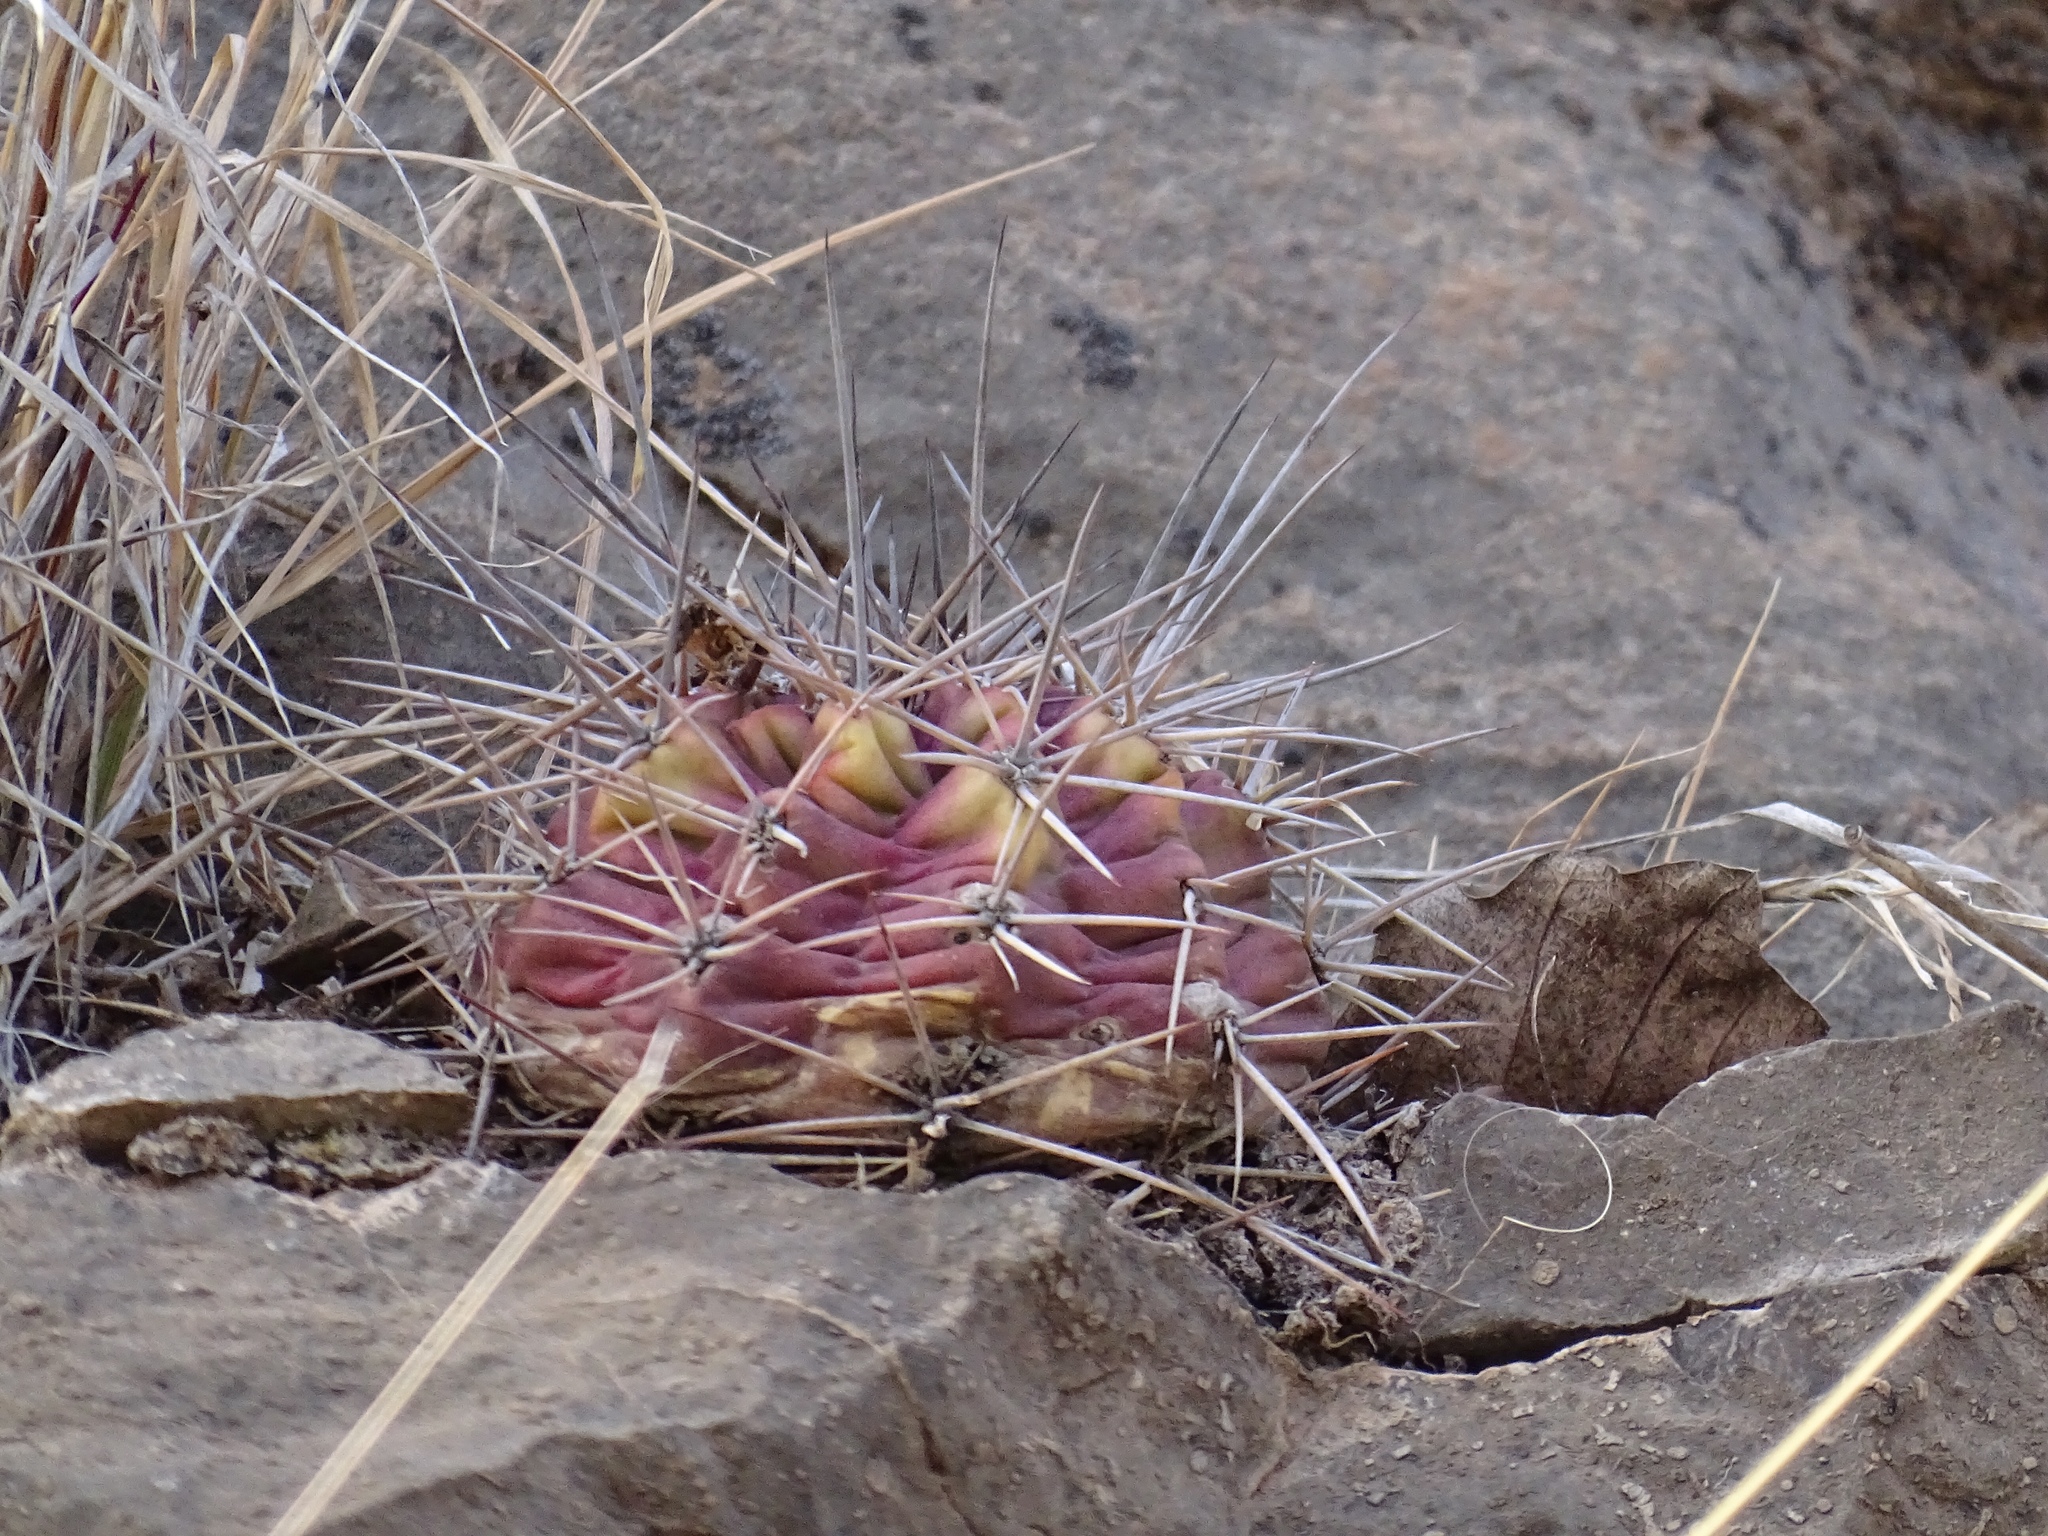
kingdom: Plantae
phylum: Tracheophyta
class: Magnoliopsida
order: Caryophyllales
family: Cactaceae
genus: Echinocereus
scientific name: Echinocereus coccineus
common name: Scarlet hedgehog cactus
